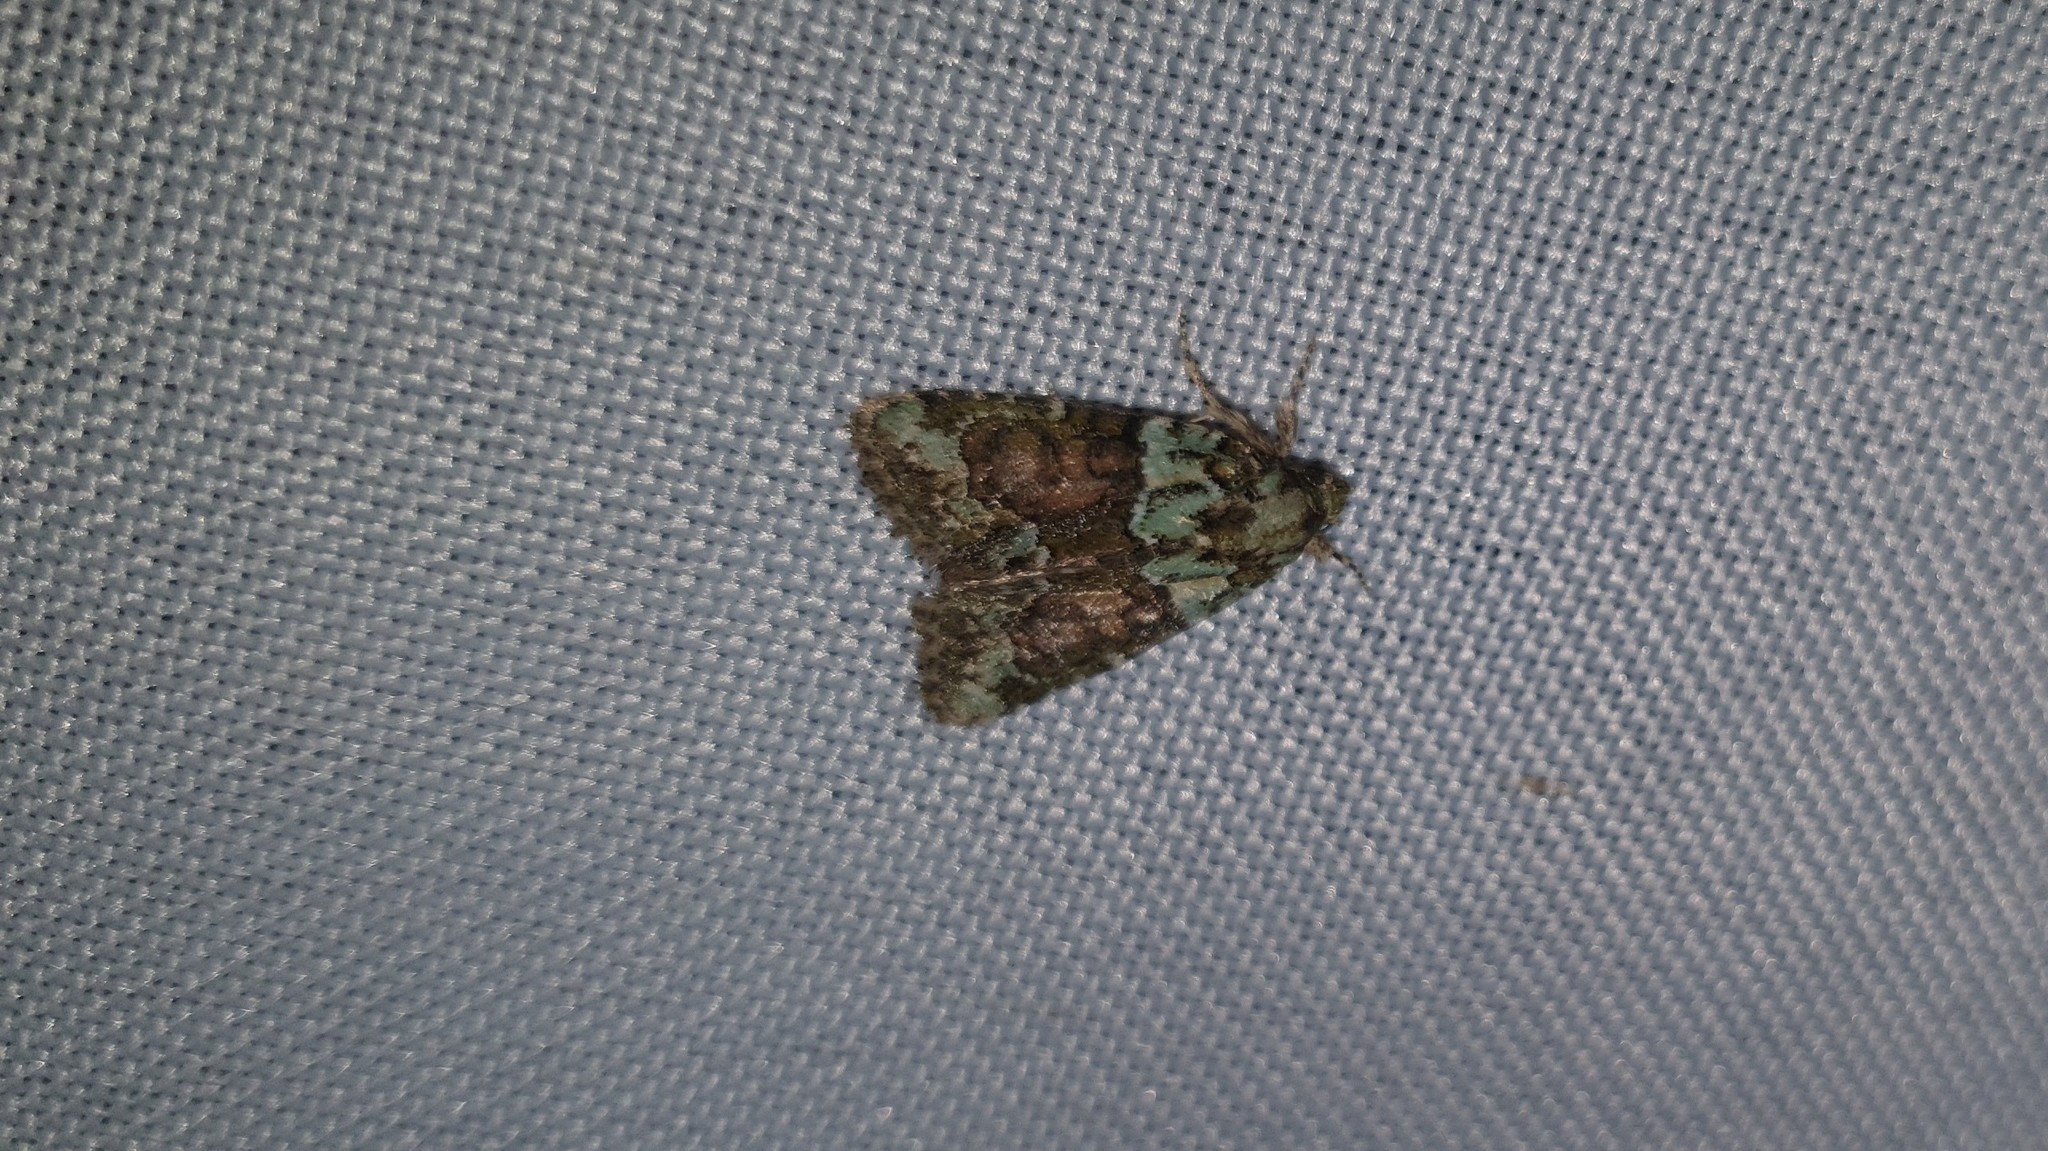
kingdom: Animalia
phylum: Arthropoda
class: Insecta
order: Lepidoptera
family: Noctuidae
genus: Cryphia
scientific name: Cryphia algae
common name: Tree-lichen beauty
